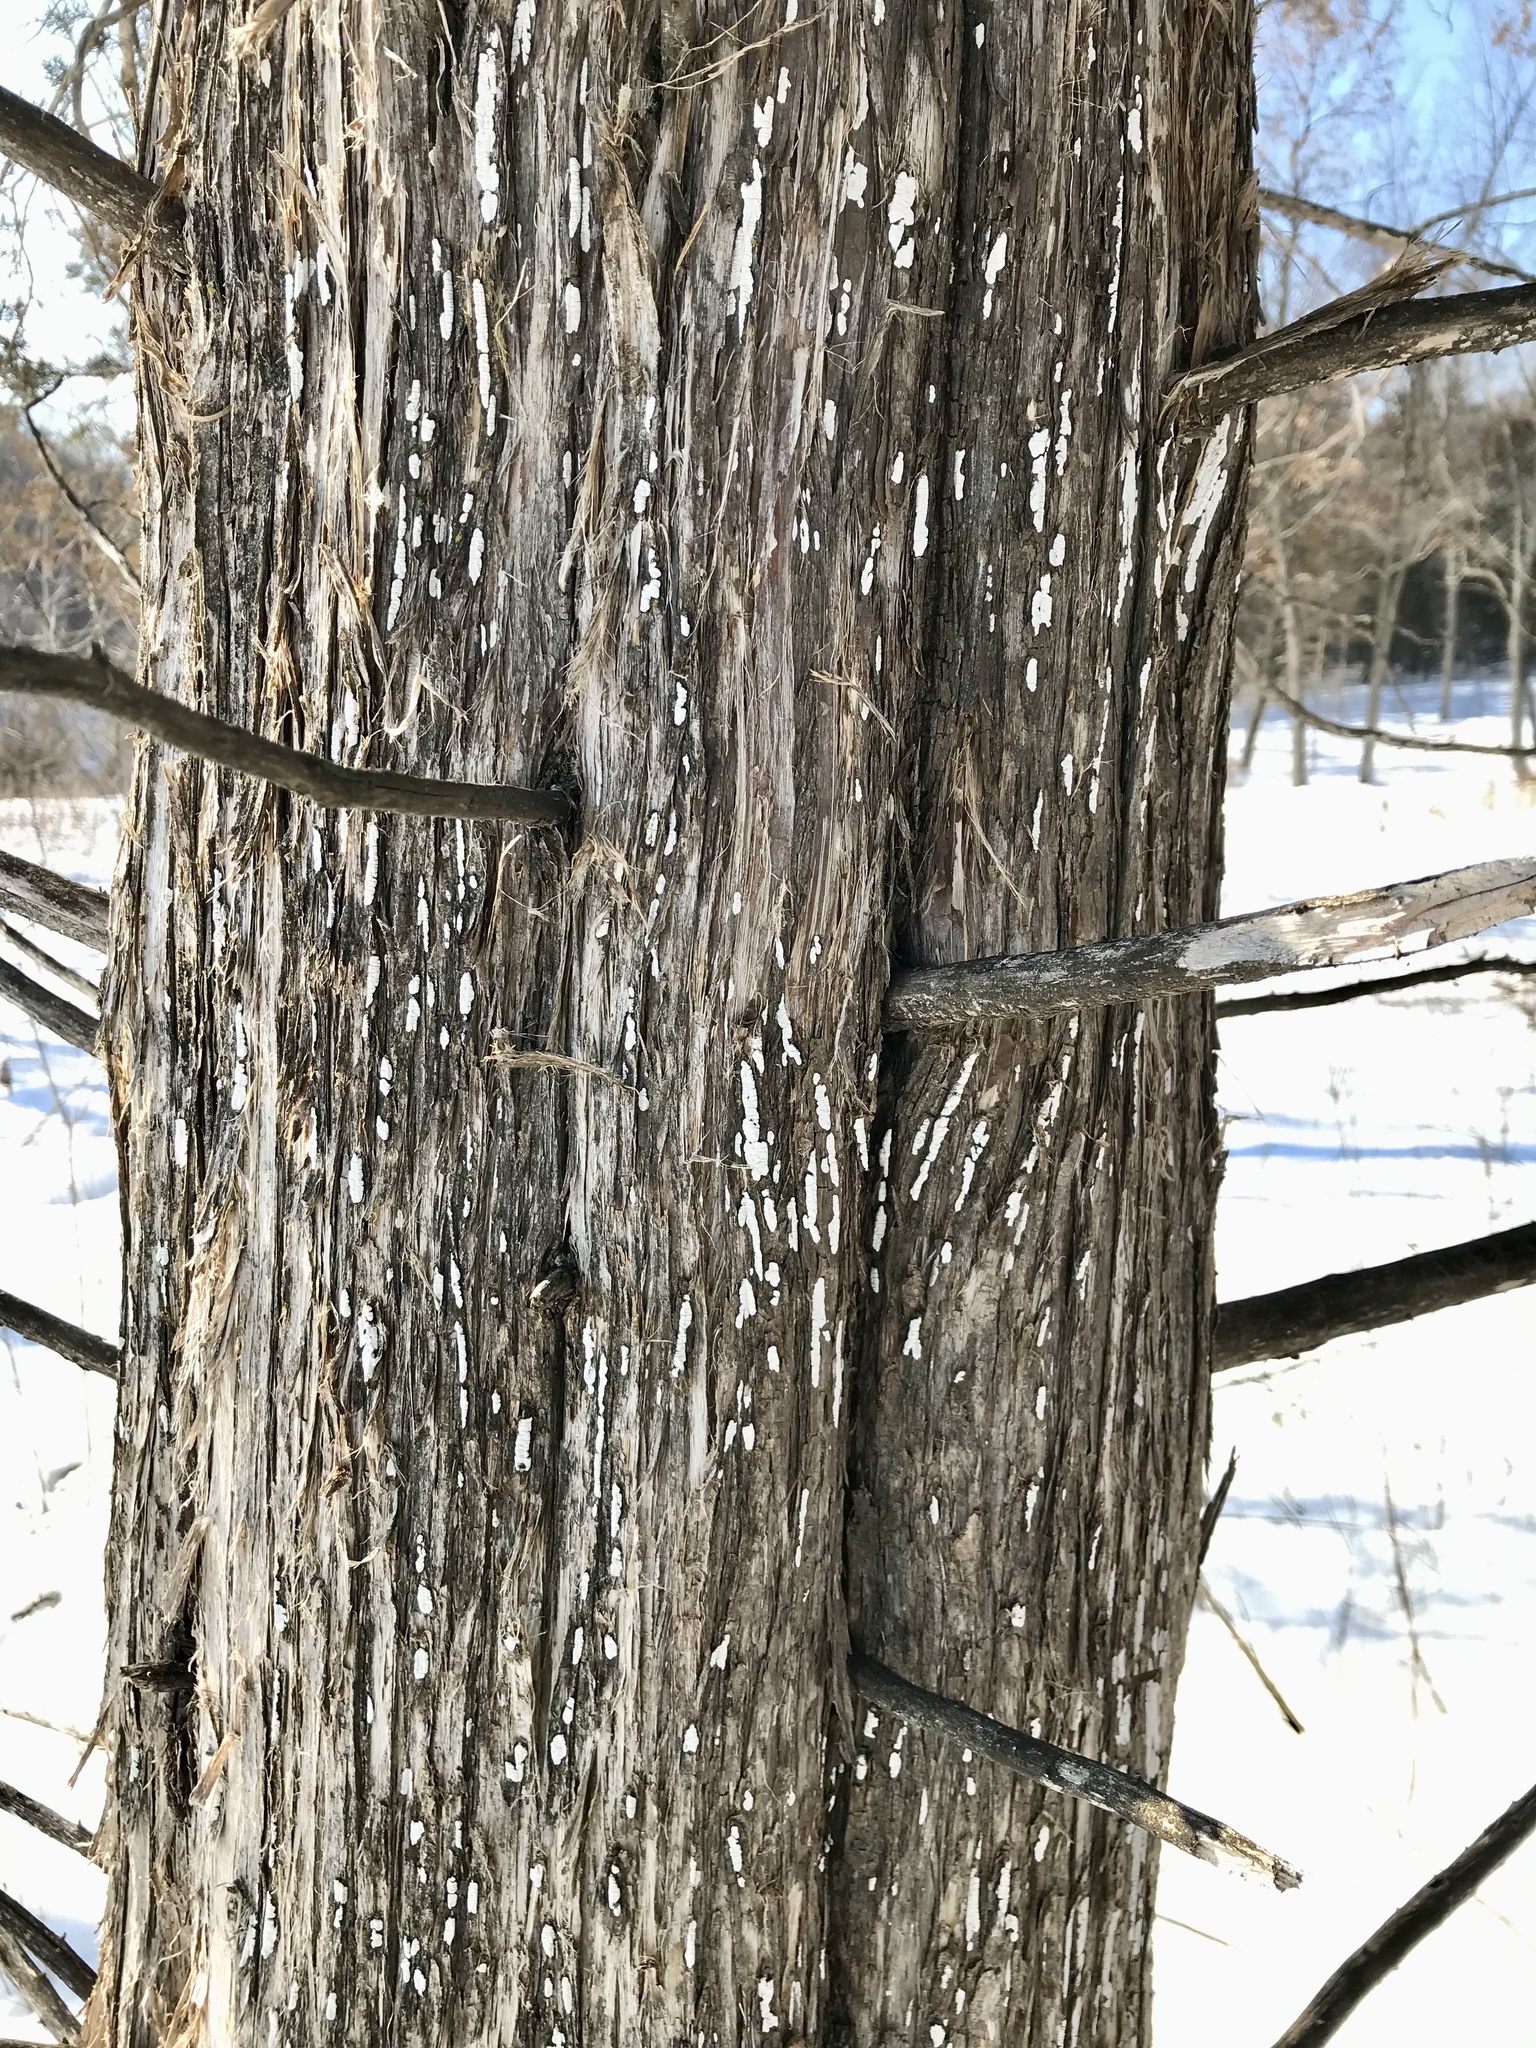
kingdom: Fungi
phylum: Basidiomycota
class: Agaricomycetes
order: Agaricales
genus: Dendrothele
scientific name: Dendrothele nivosa
